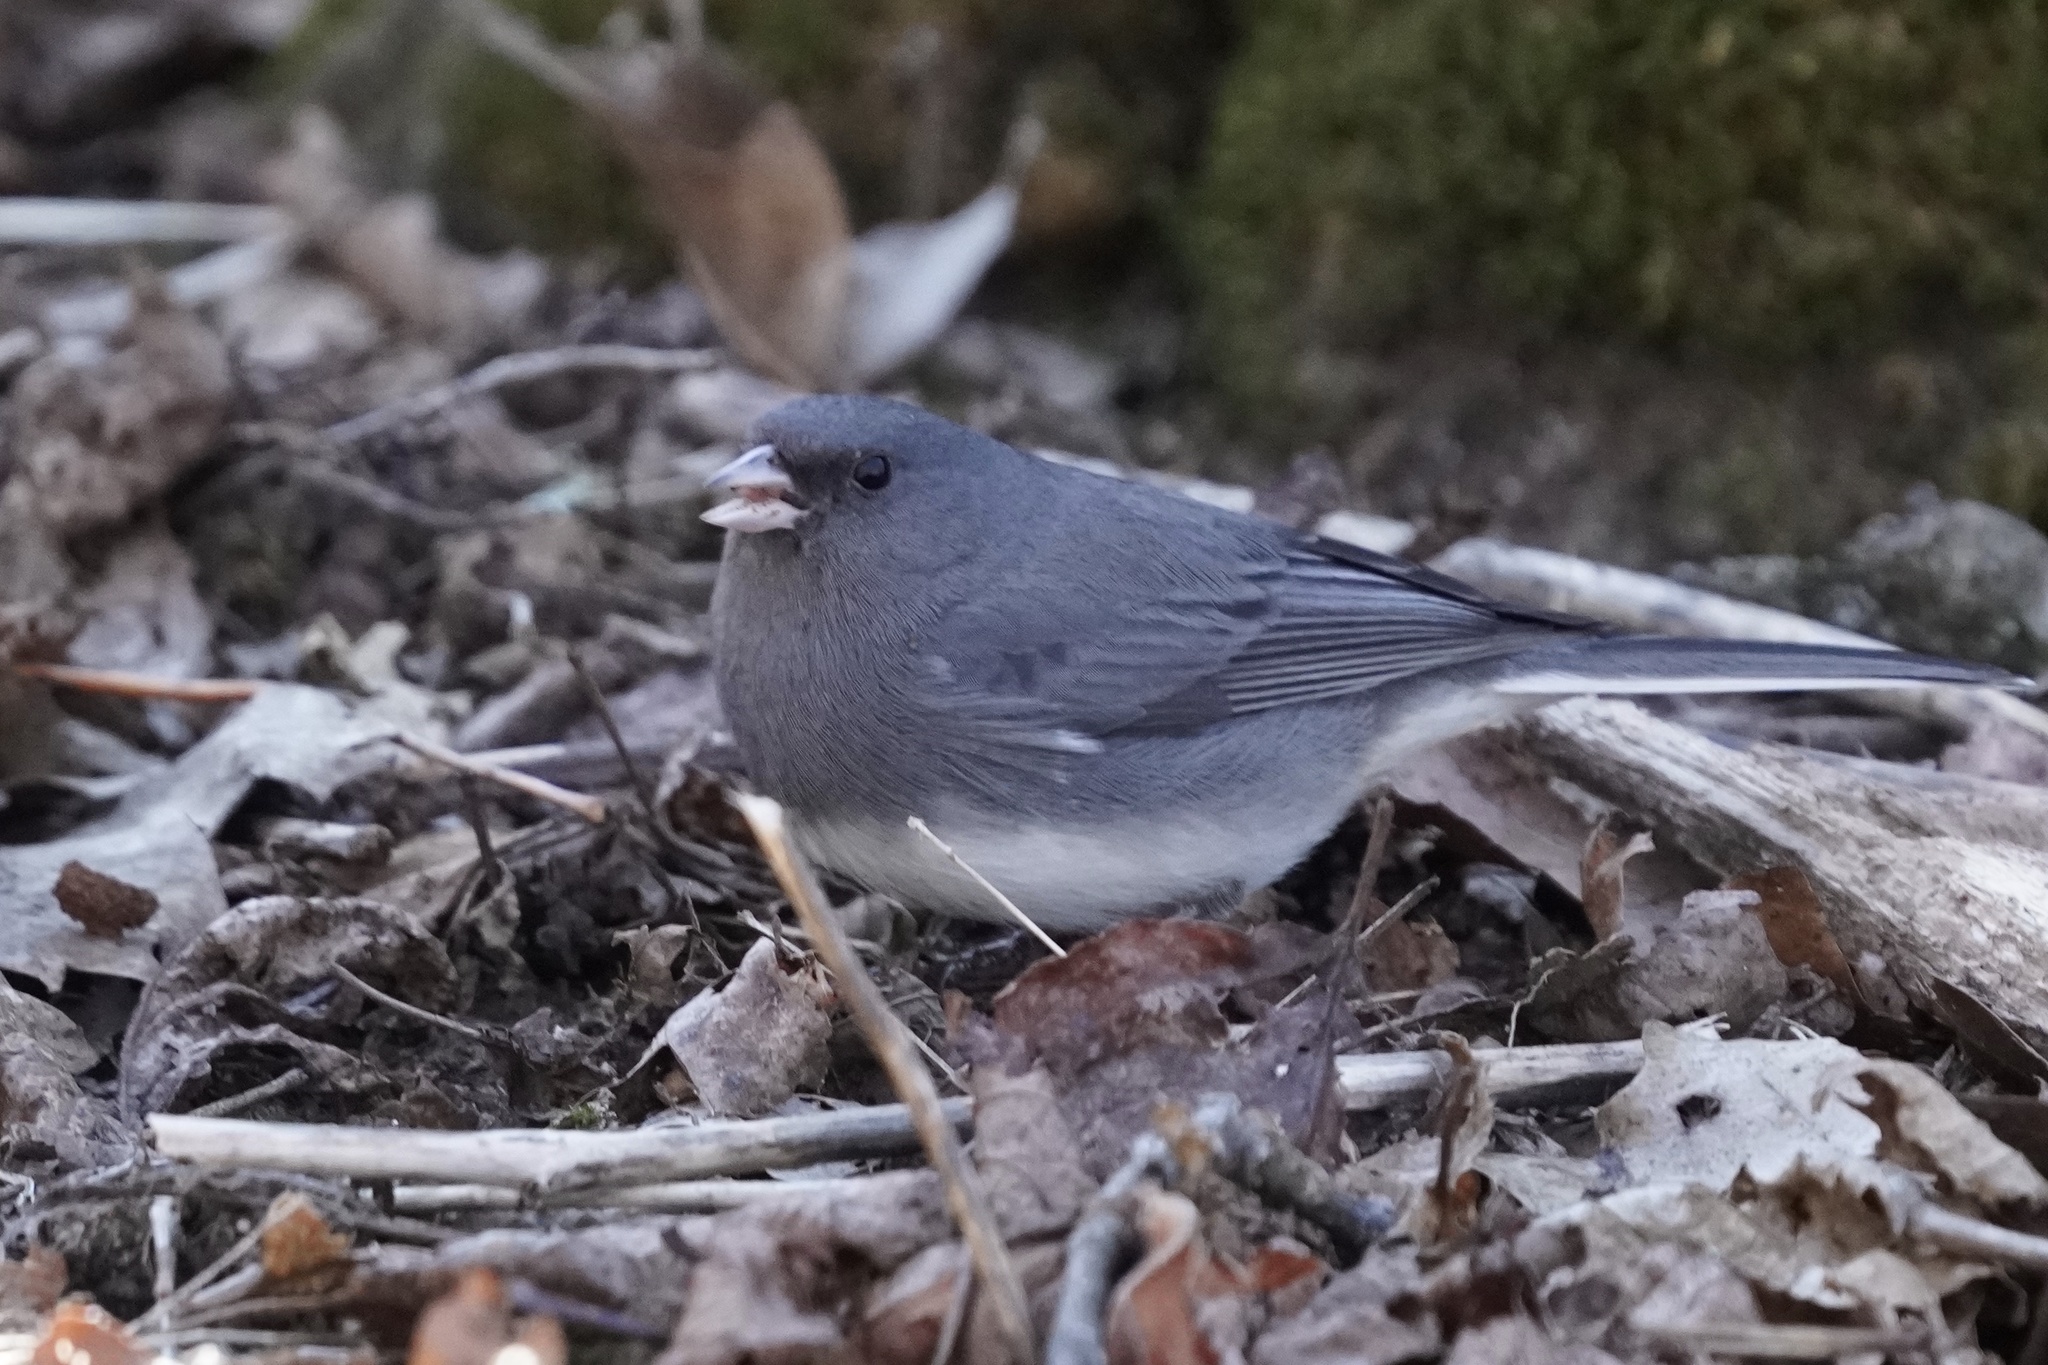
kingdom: Animalia
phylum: Chordata
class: Aves
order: Passeriformes
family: Passerellidae
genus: Junco
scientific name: Junco hyemalis
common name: Dark-eyed junco
